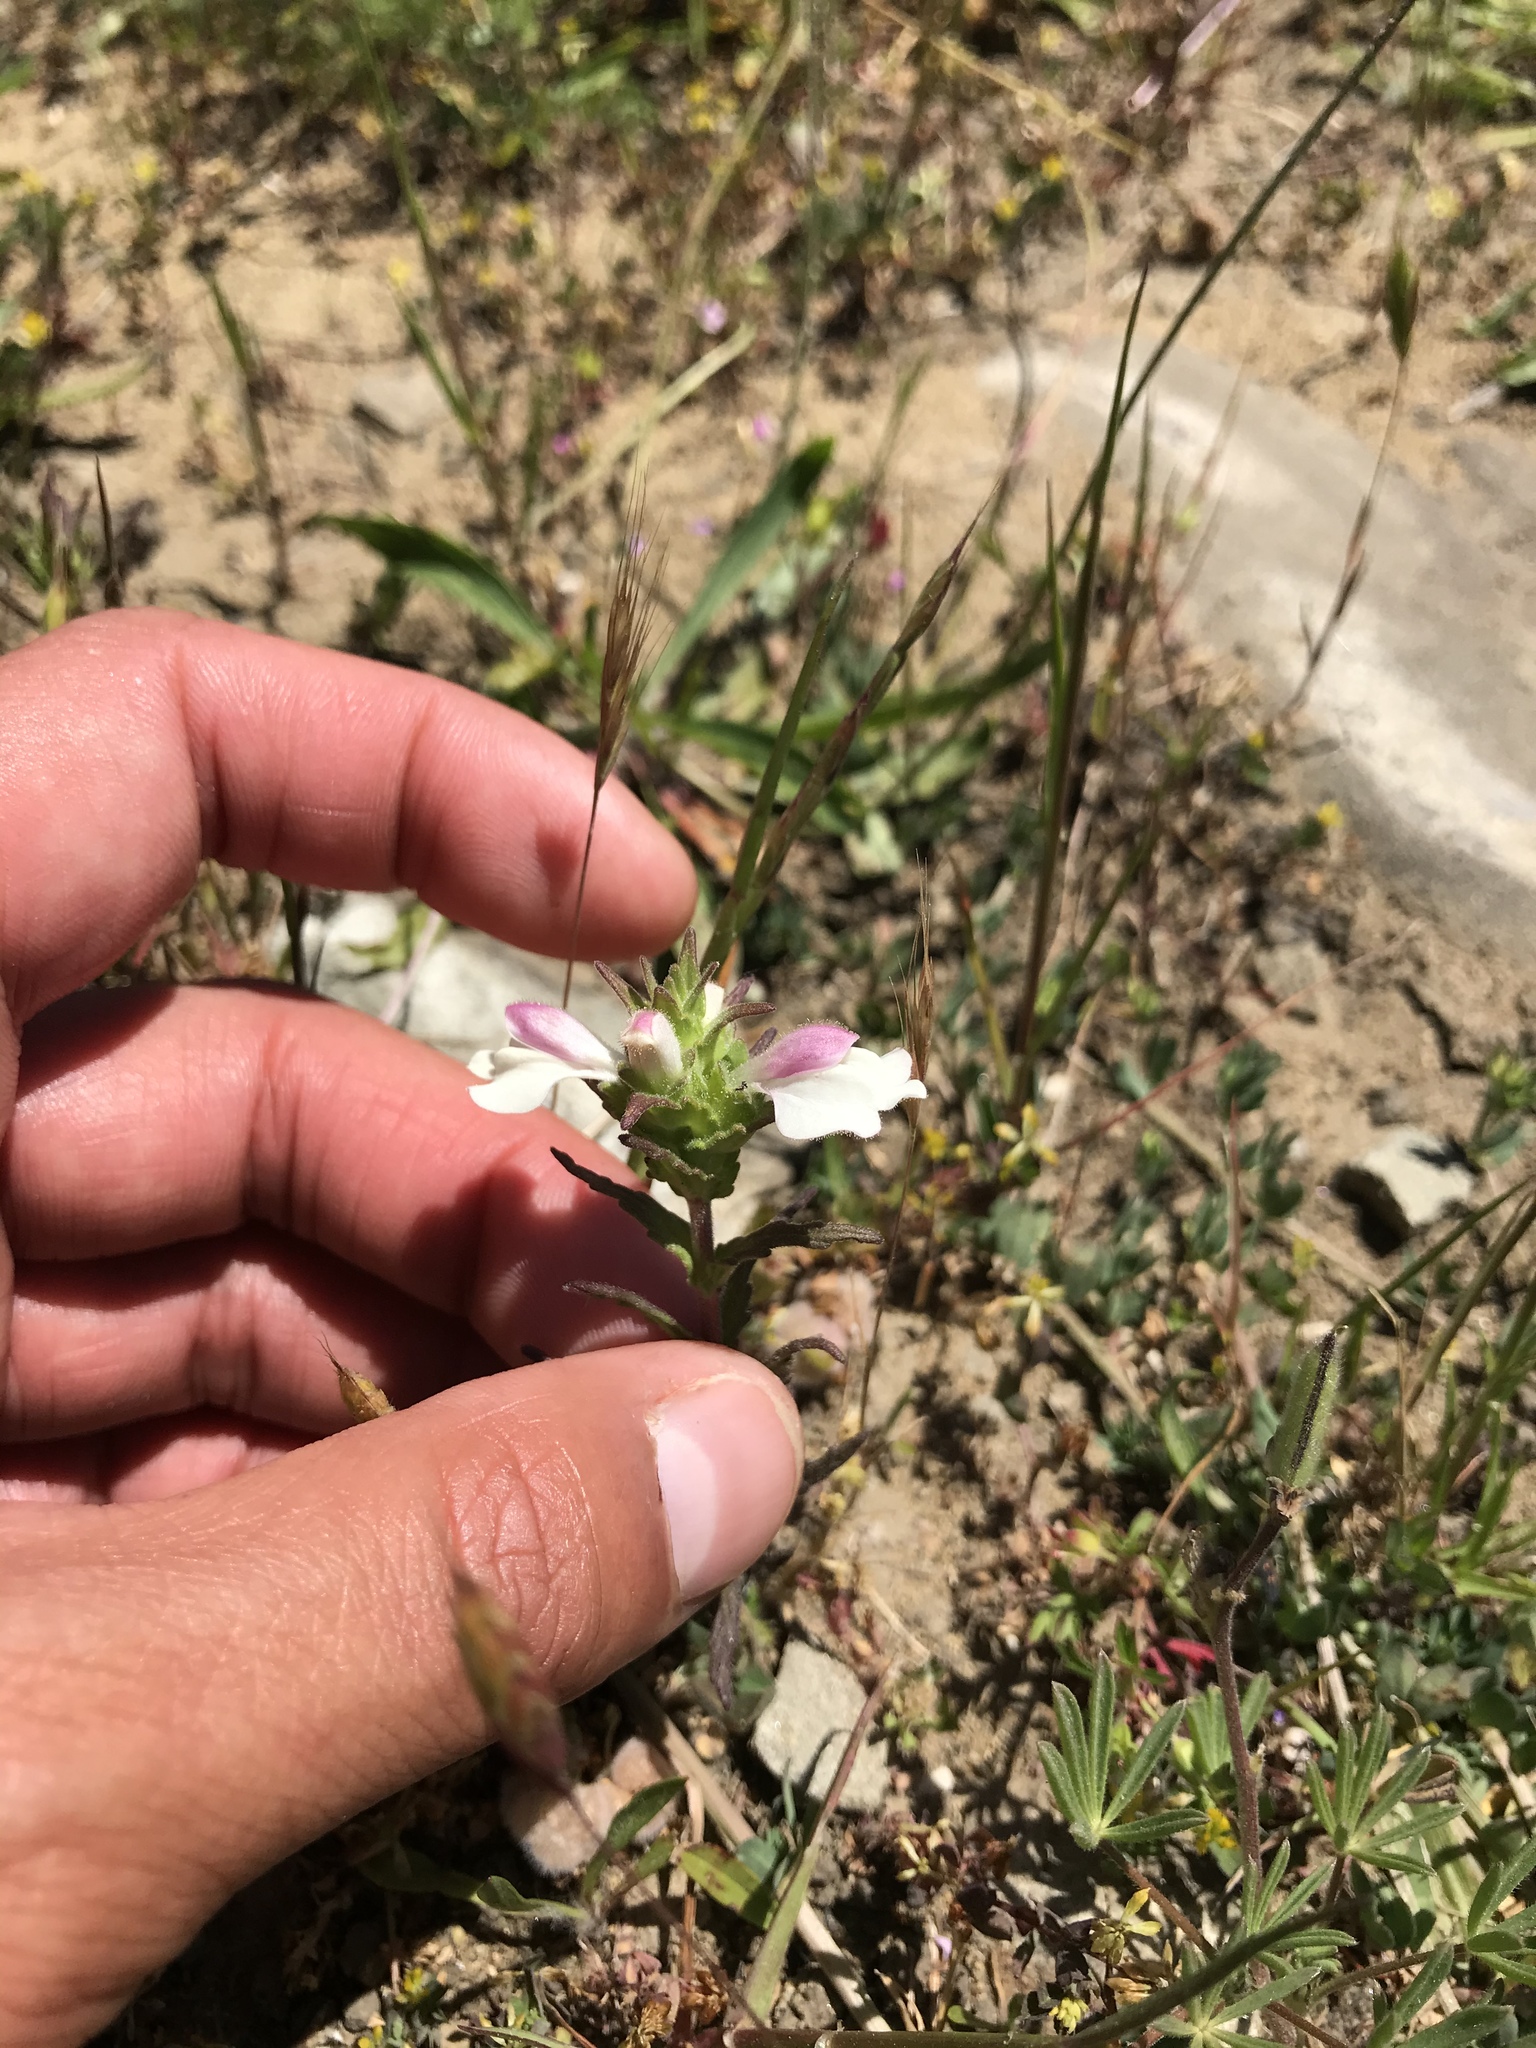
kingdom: Plantae
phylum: Tracheophyta
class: Magnoliopsida
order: Lamiales
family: Orobanchaceae
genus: Bellardia
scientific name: Bellardia trixago
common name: Mediterranean lineseed
